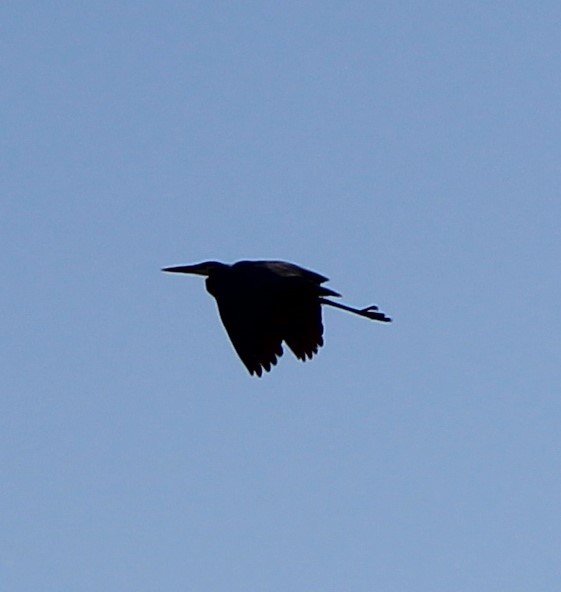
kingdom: Animalia
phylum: Chordata
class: Aves
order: Pelecaniformes
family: Ardeidae
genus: Ardea
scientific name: Ardea herodias
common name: Great blue heron
